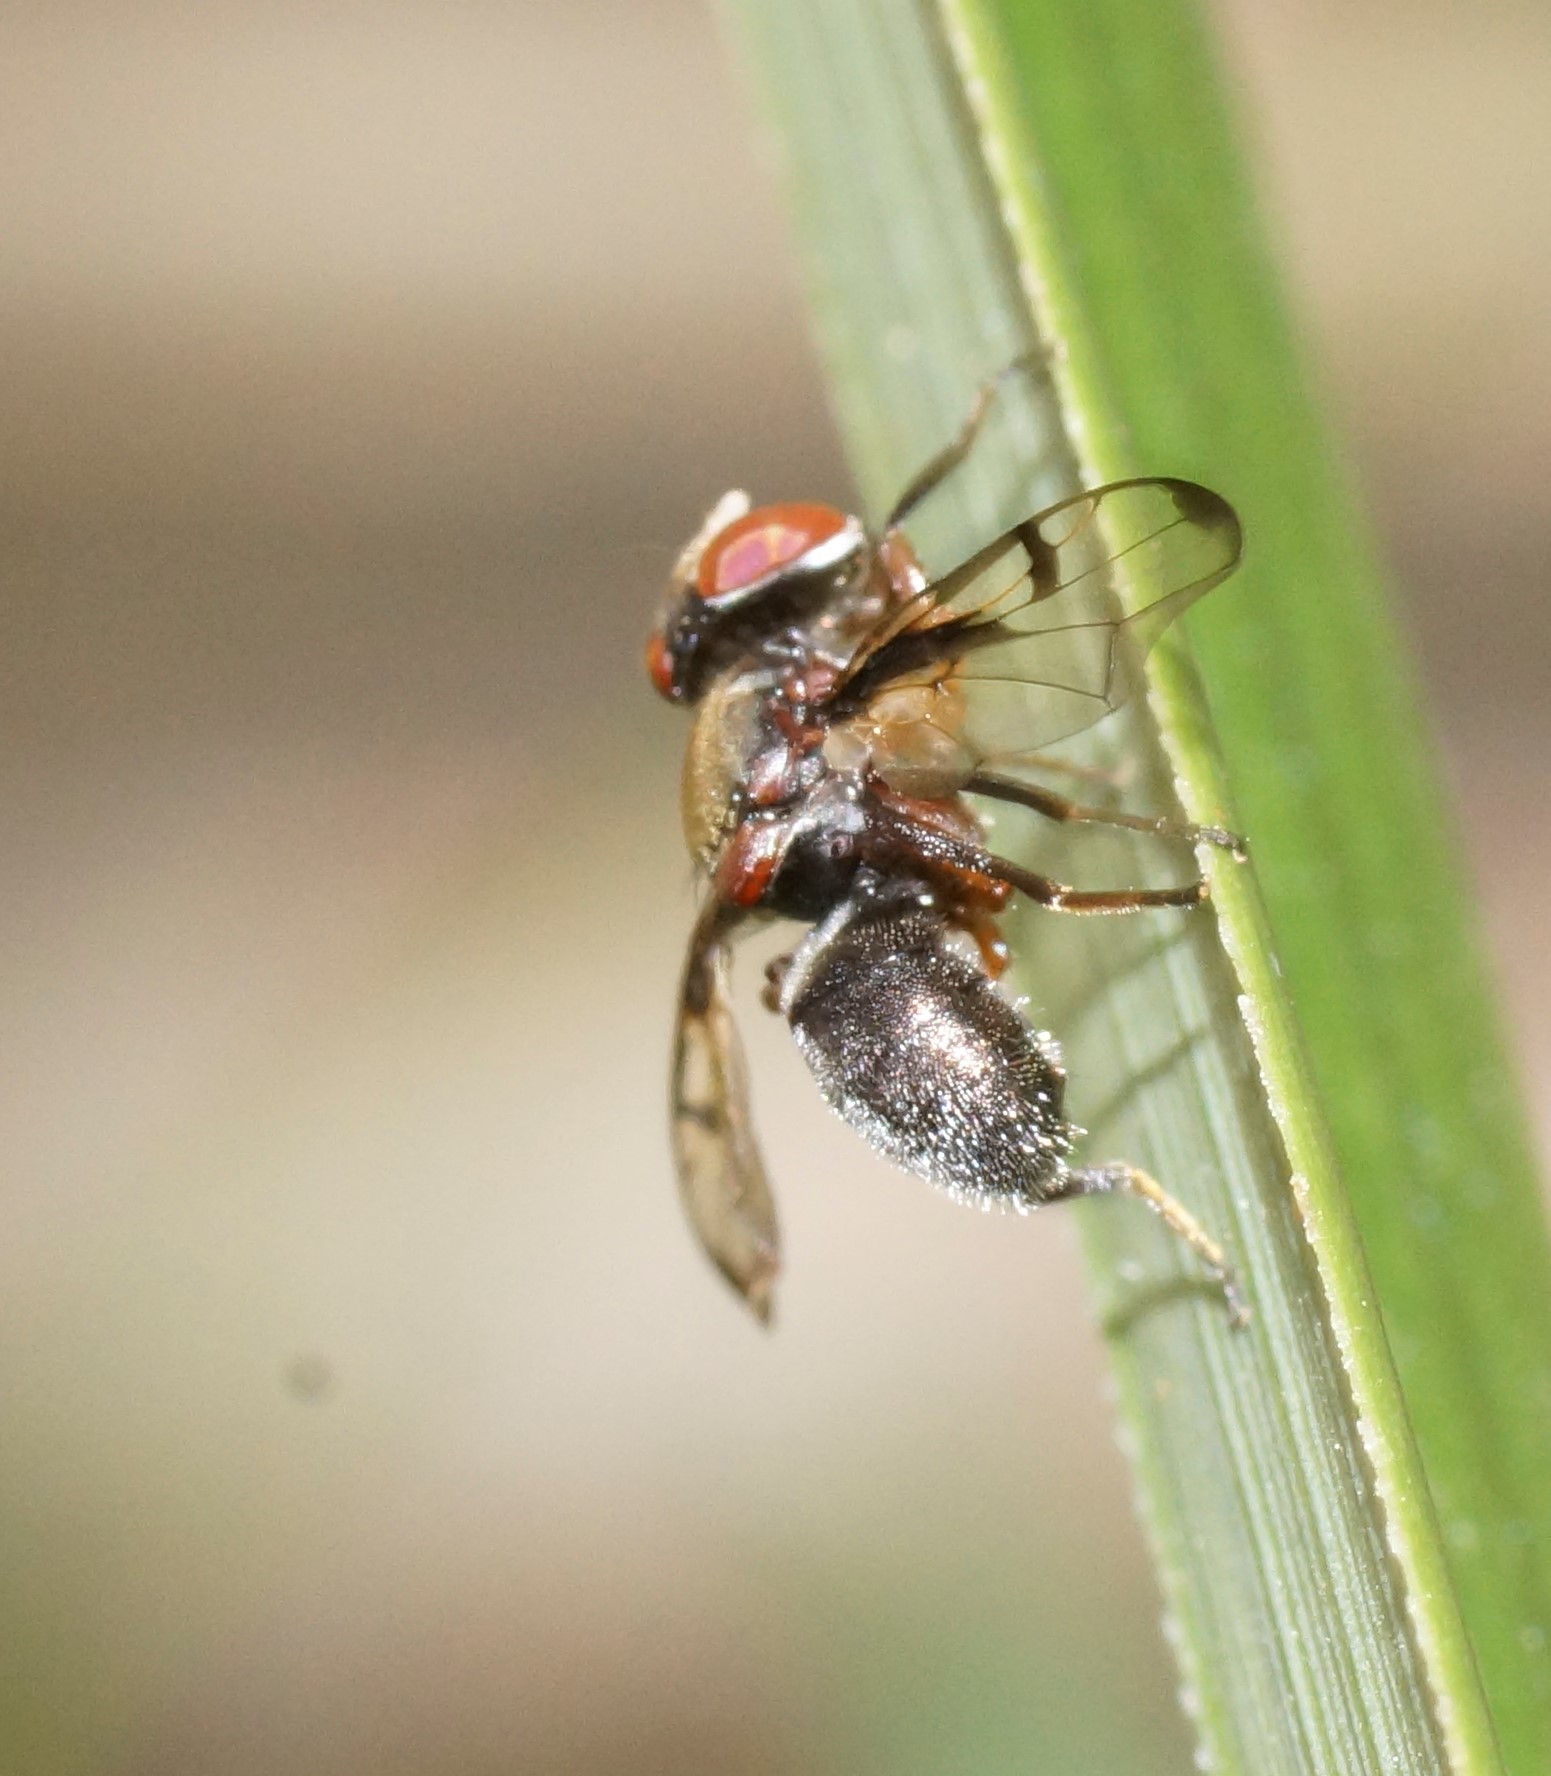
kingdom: Animalia
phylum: Arthropoda
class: Insecta
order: Diptera
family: Platystomatidae
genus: Pogonortalis
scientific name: Pogonortalis doclea
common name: Boatman fly
